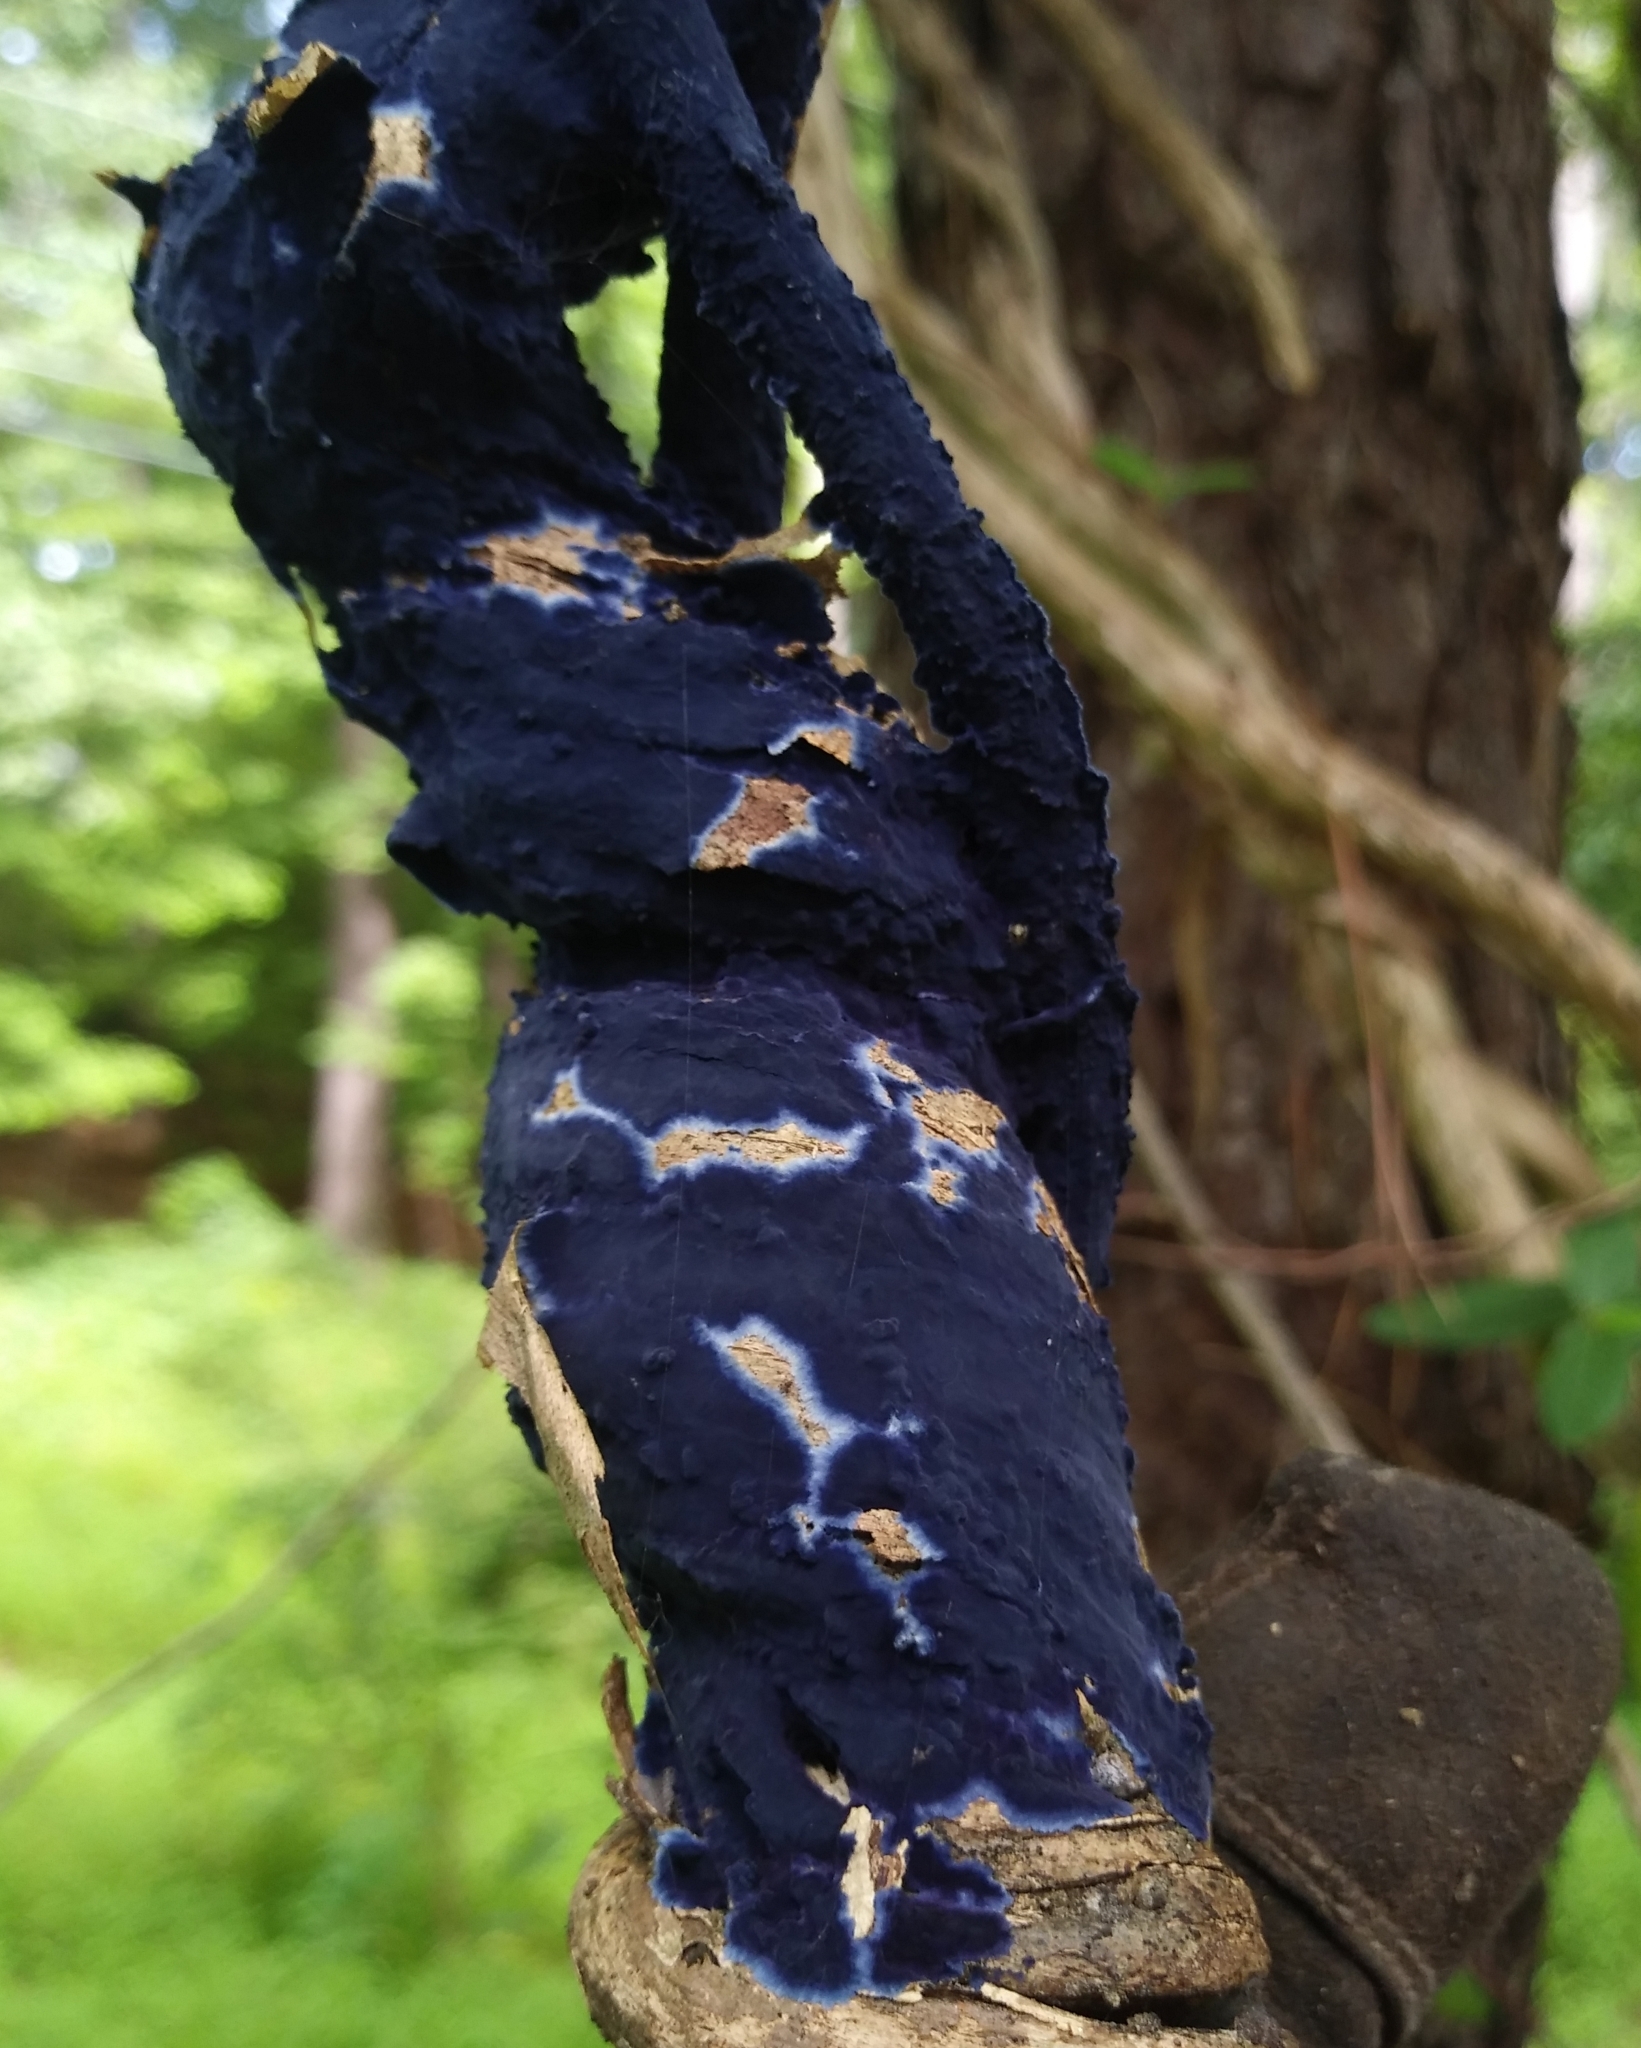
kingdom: Fungi
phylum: Basidiomycota
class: Agaricomycetes
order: Polyporales
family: Phanerochaetaceae
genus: Terana
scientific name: Terana coerulea
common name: Cobalt crust
